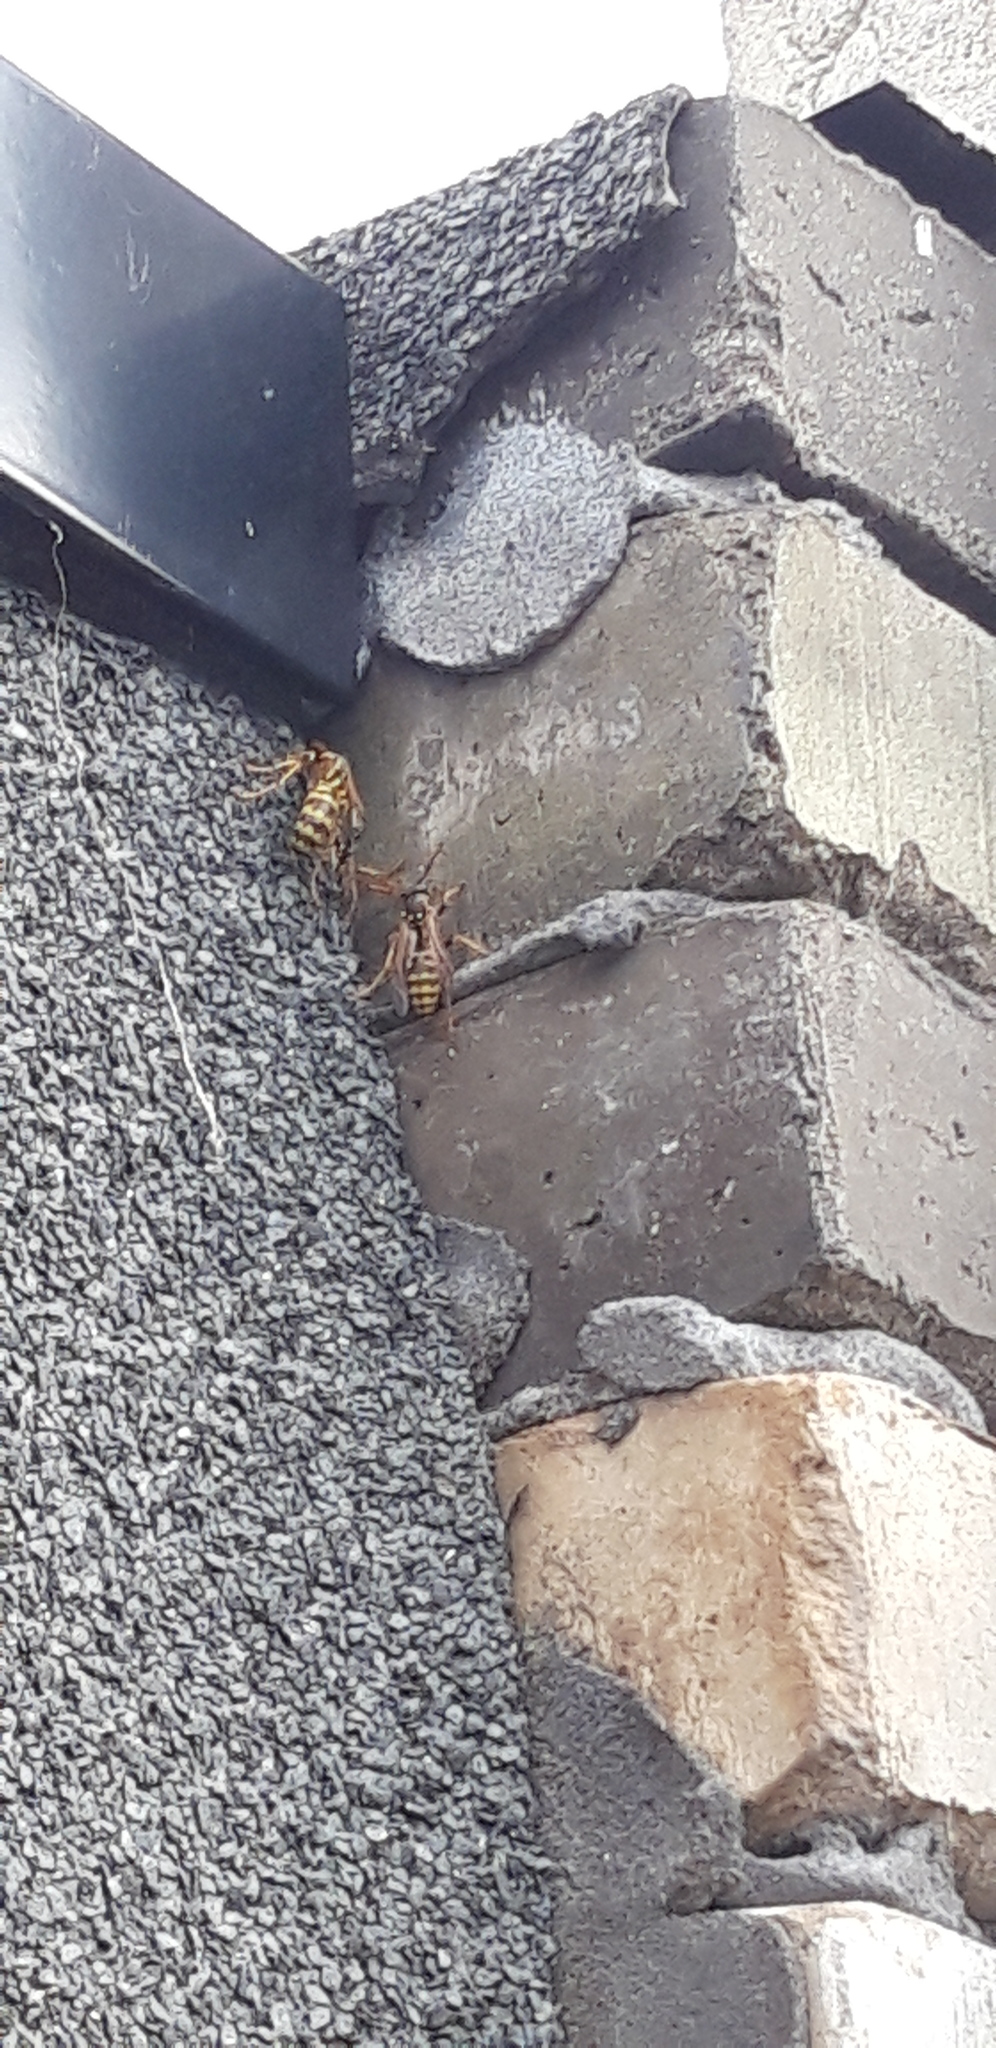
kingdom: Animalia
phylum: Arthropoda
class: Insecta
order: Hymenoptera
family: Eumenidae
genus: Polistes
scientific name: Polistes dominula
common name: Paper wasp
